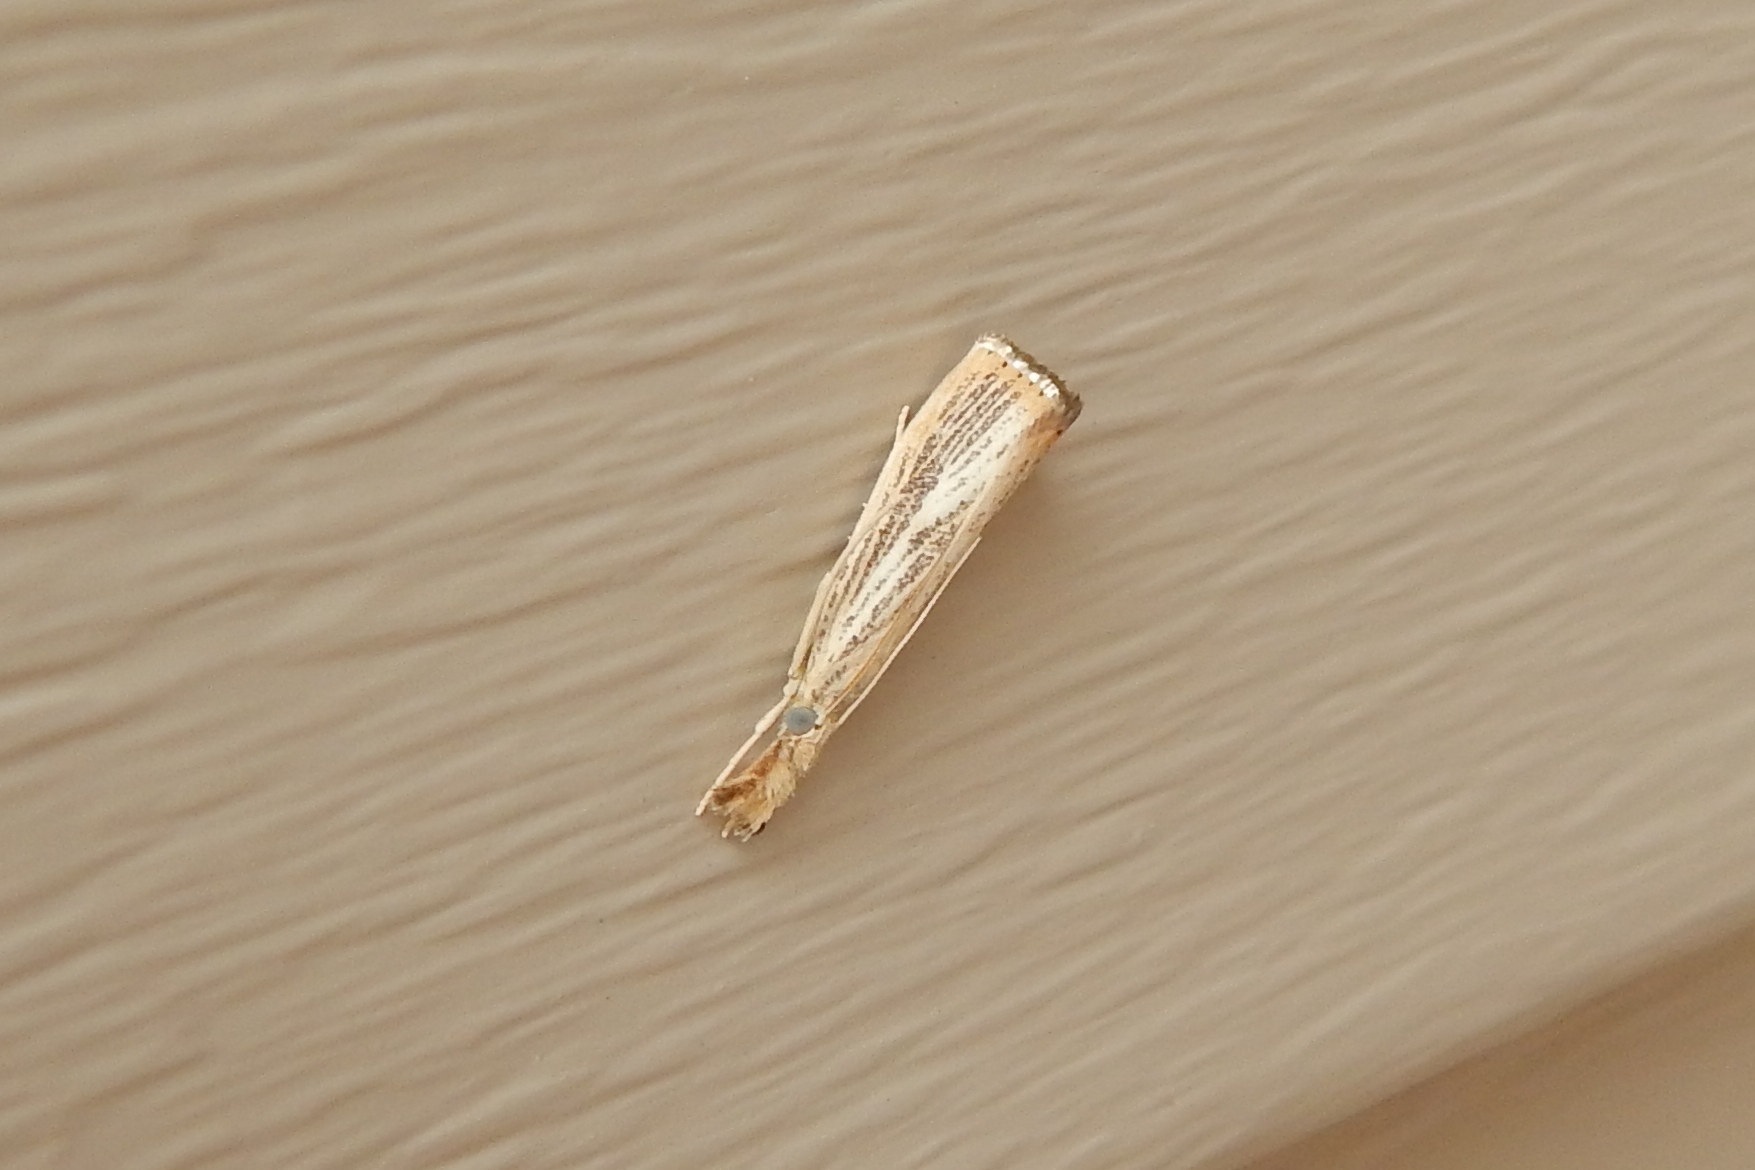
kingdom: Animalia
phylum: Arthropoda
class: Insecta
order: Lepidoptera
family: Crambidae
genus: Agriphila
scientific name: Agriphila vulgivagellus
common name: Vagabond crambus moth
